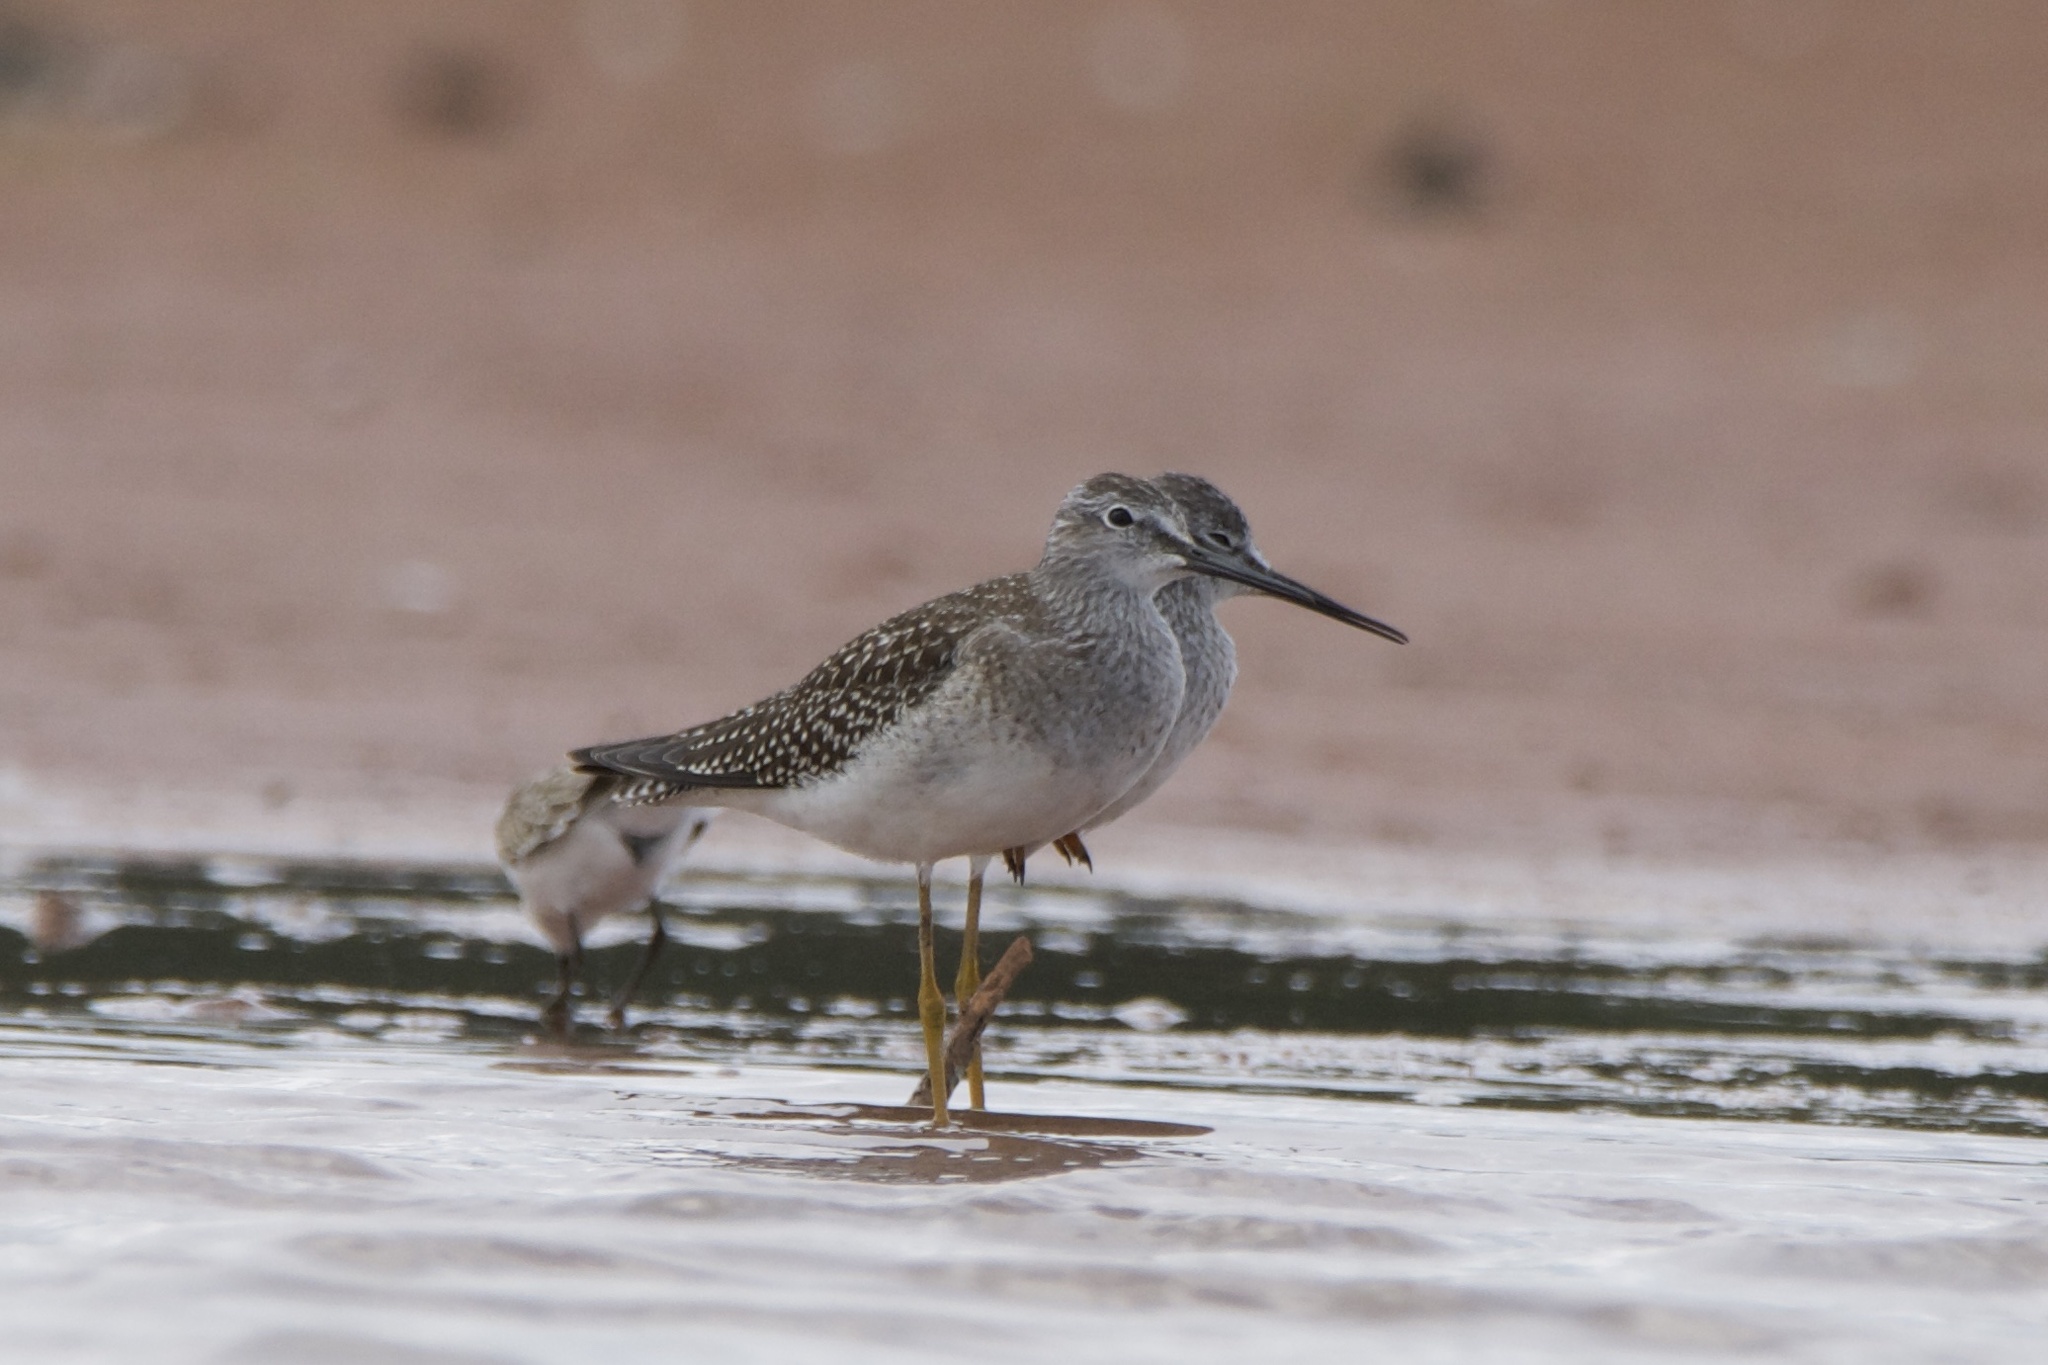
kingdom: Animalia
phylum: Chordata
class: Aves
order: Charadriiformes
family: Scolopacidae
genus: Tringa
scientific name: Tringa flavipes
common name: Lesser yellowlegs
